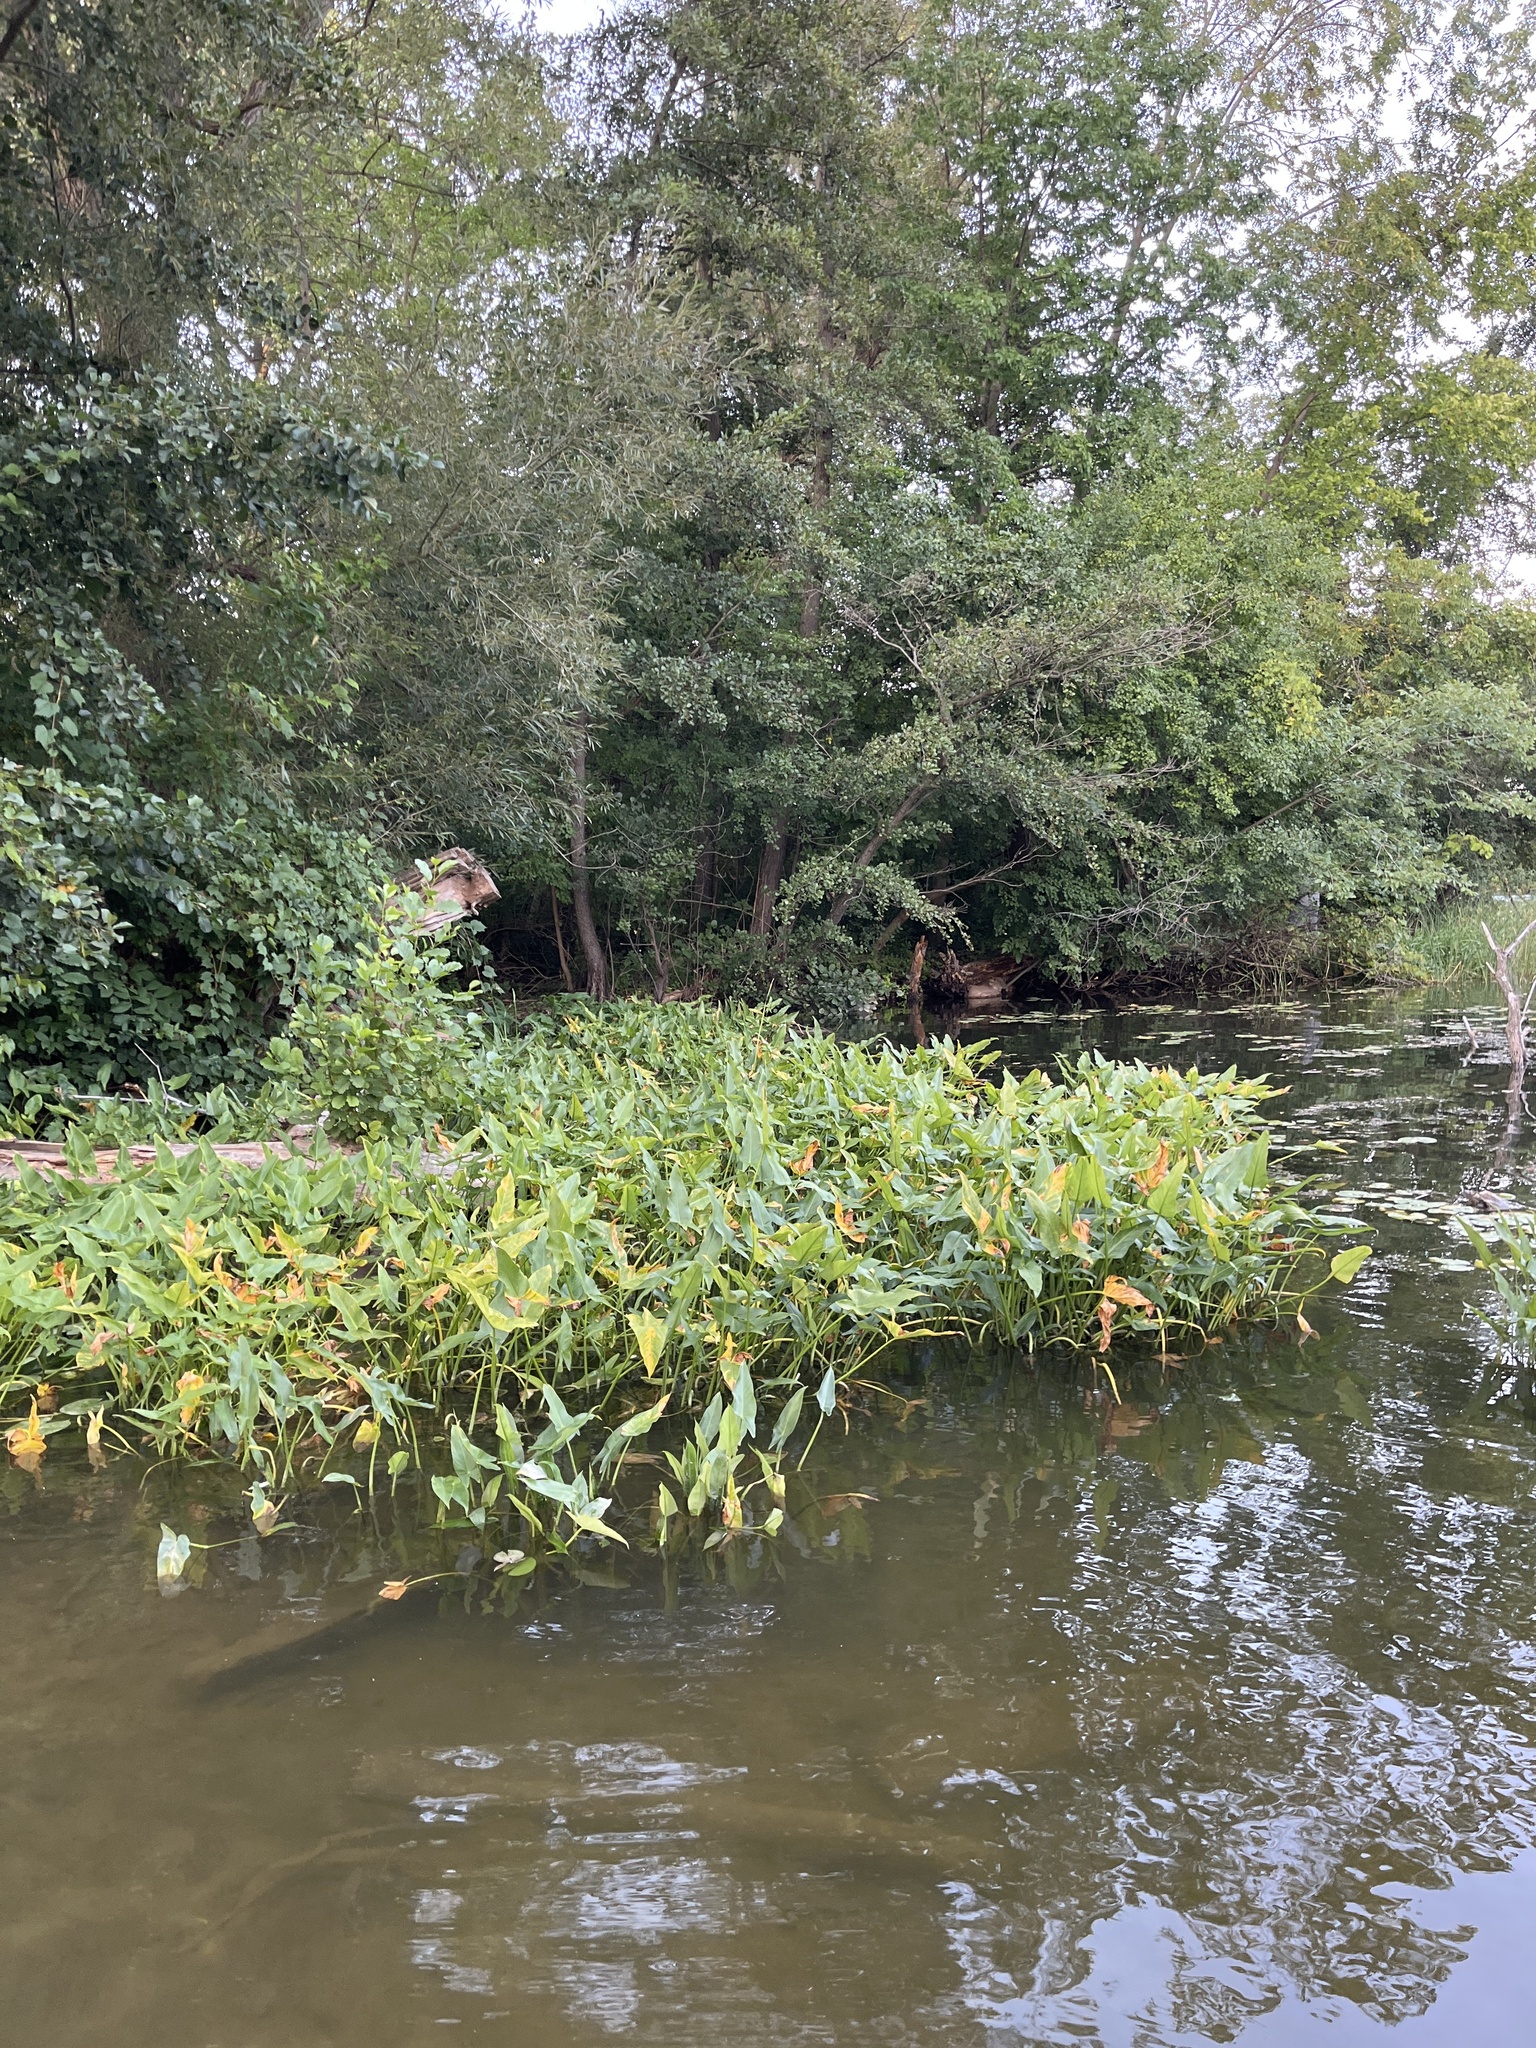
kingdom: Plantae
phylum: Tracheophyta
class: Liliopsida
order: Alismatales
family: Araceae
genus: Peltandra
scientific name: Peltandra virginica
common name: Arrow arum
